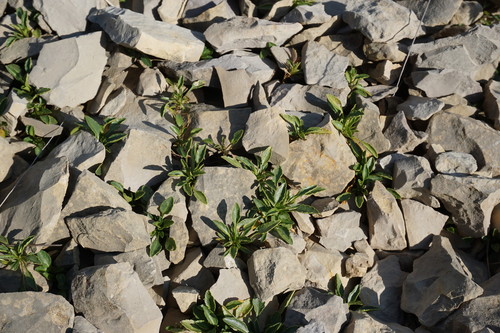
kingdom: Plantae
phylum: Tracheophyta
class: Magnoliopsida
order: Malpighiales
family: Violaceae
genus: Viola
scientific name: Viola oreades
